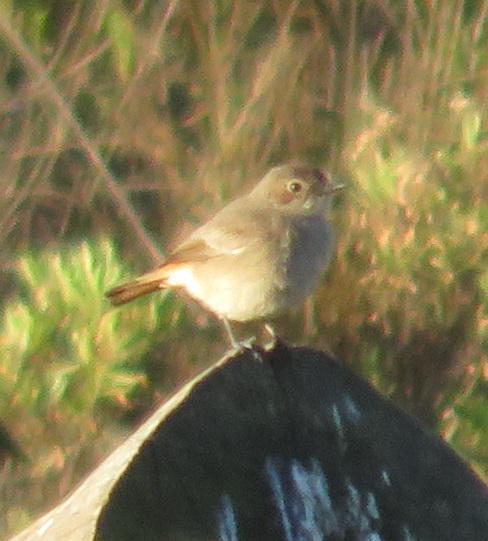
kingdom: Animalia
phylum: Chordata
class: Aves
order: Passeriformes
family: Muscicapidae
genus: Oenanthe
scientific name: Oenanthe familiaris
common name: Familiar chat
